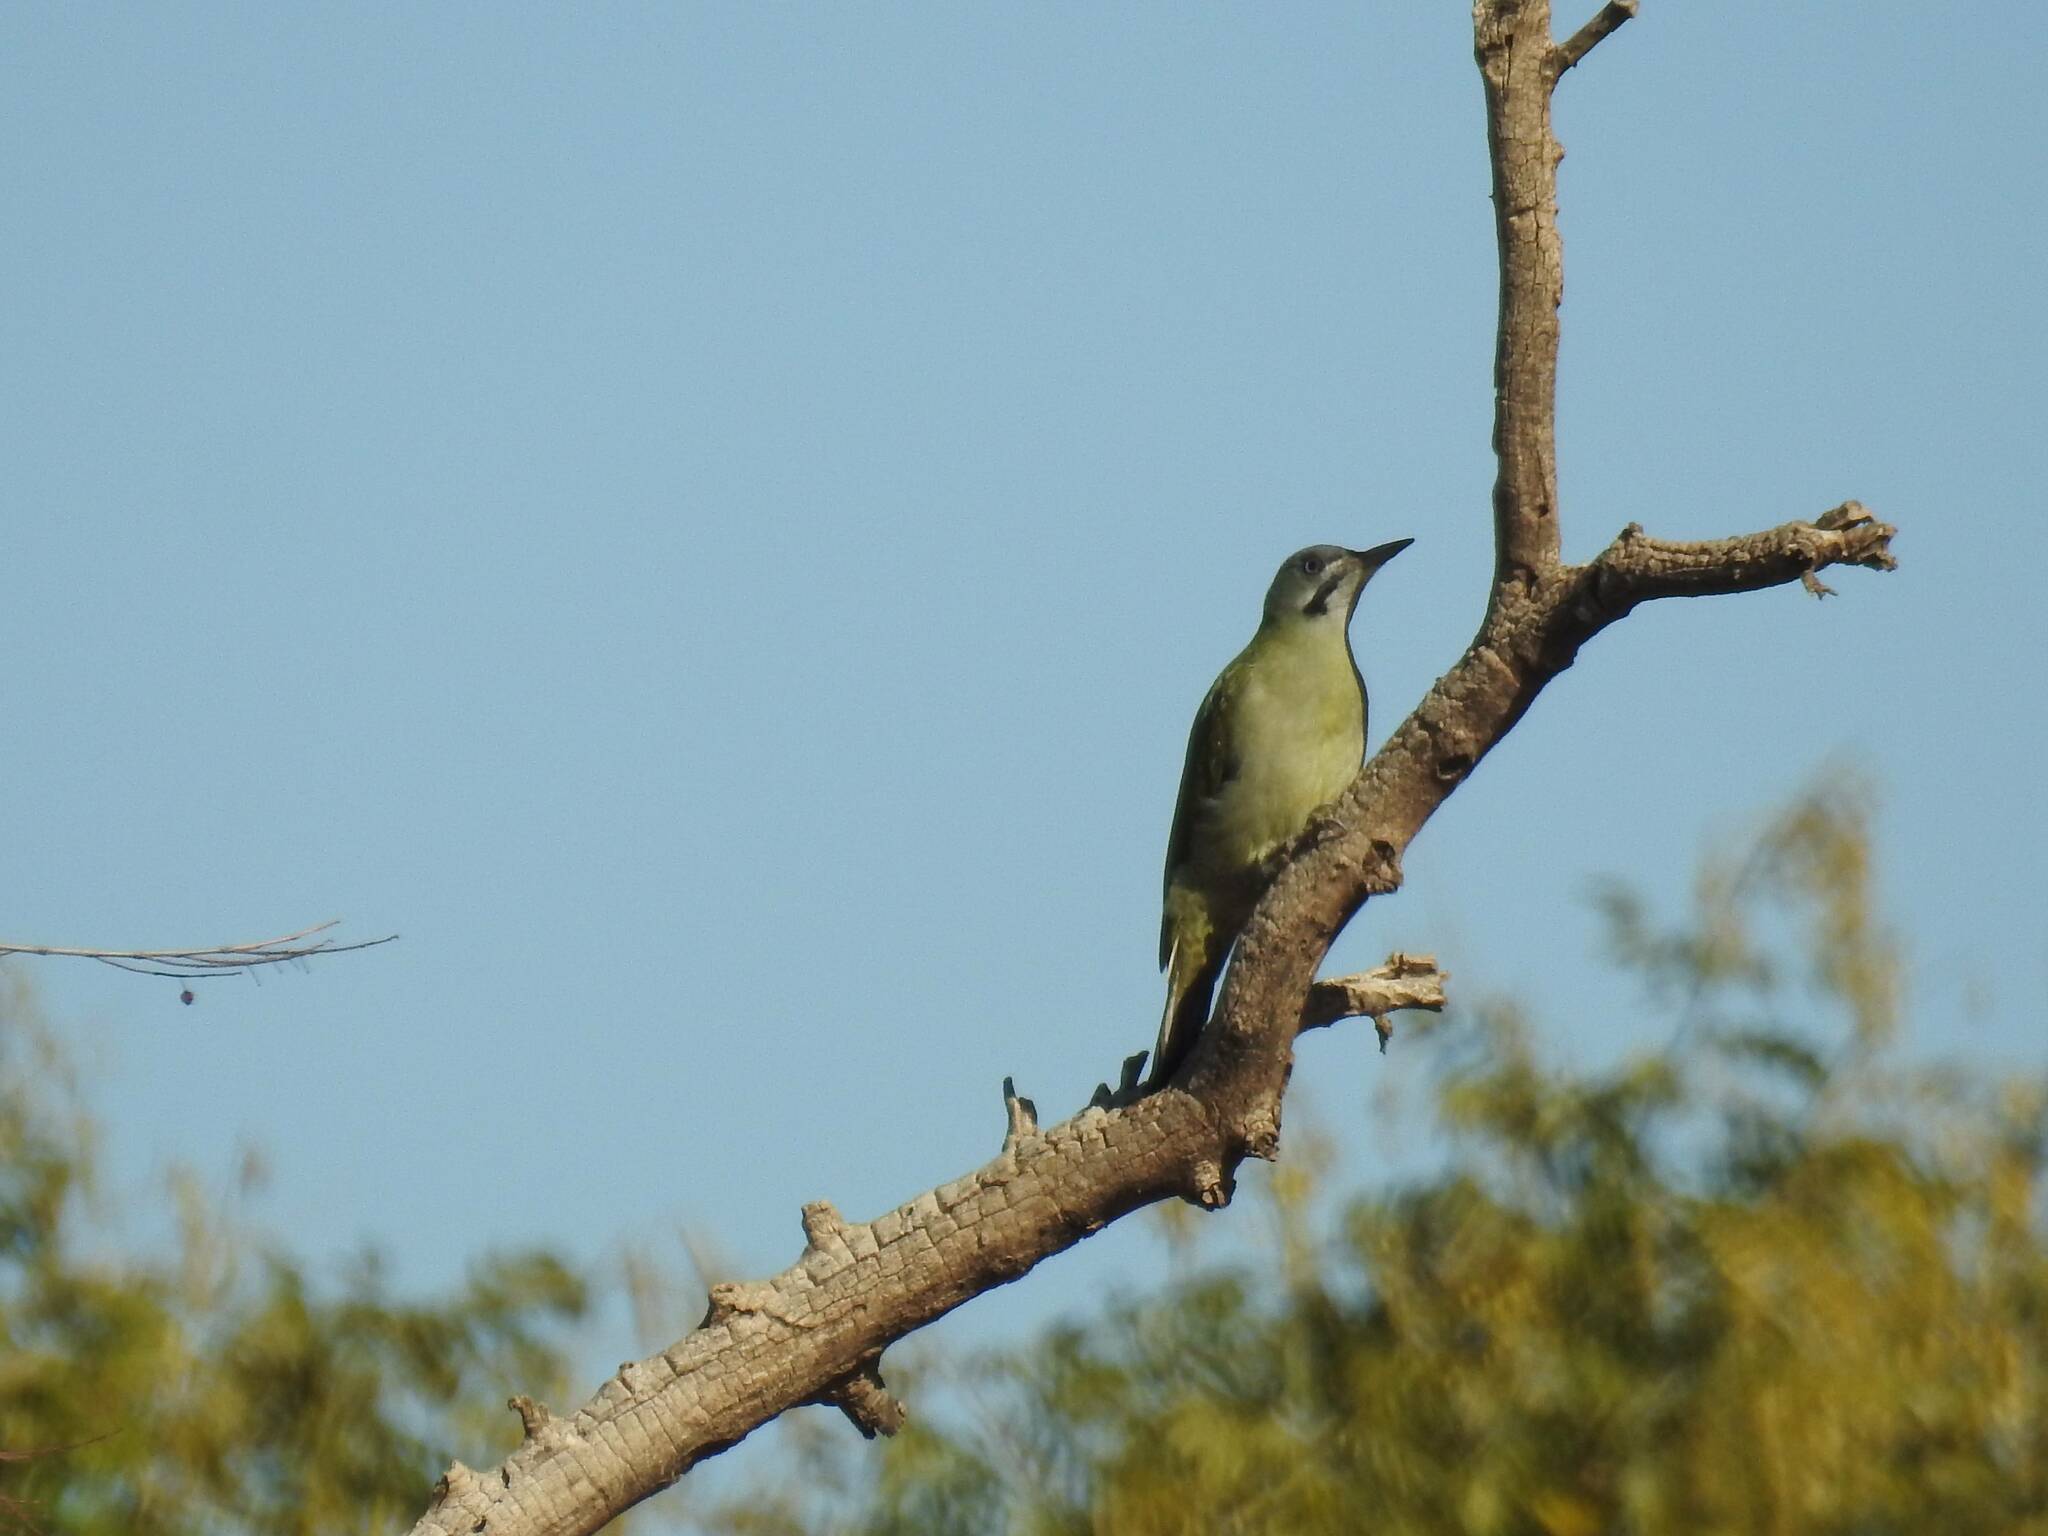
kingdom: Animalia
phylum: Chordata
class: Aves
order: Piciformes
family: Picidae
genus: Picus
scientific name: Picus vaillantii
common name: Levaillant's woodpecker
